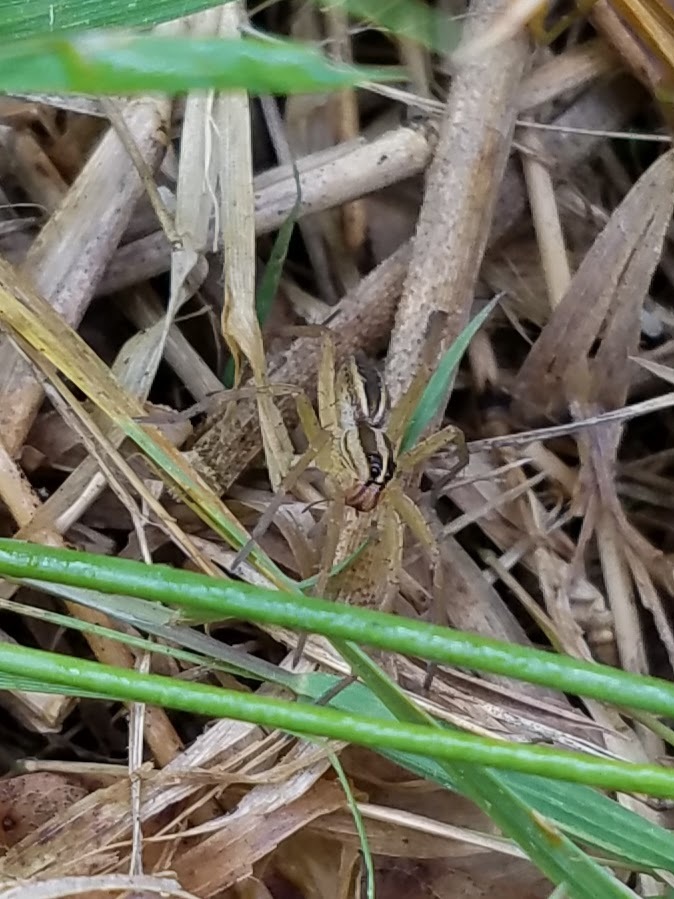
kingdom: Animalia
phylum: Arthropoda
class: Arachnida
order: Araneae
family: Lycosidae
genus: Rabidosa
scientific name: Rabidosa rabida
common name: Rabid wolf spider
